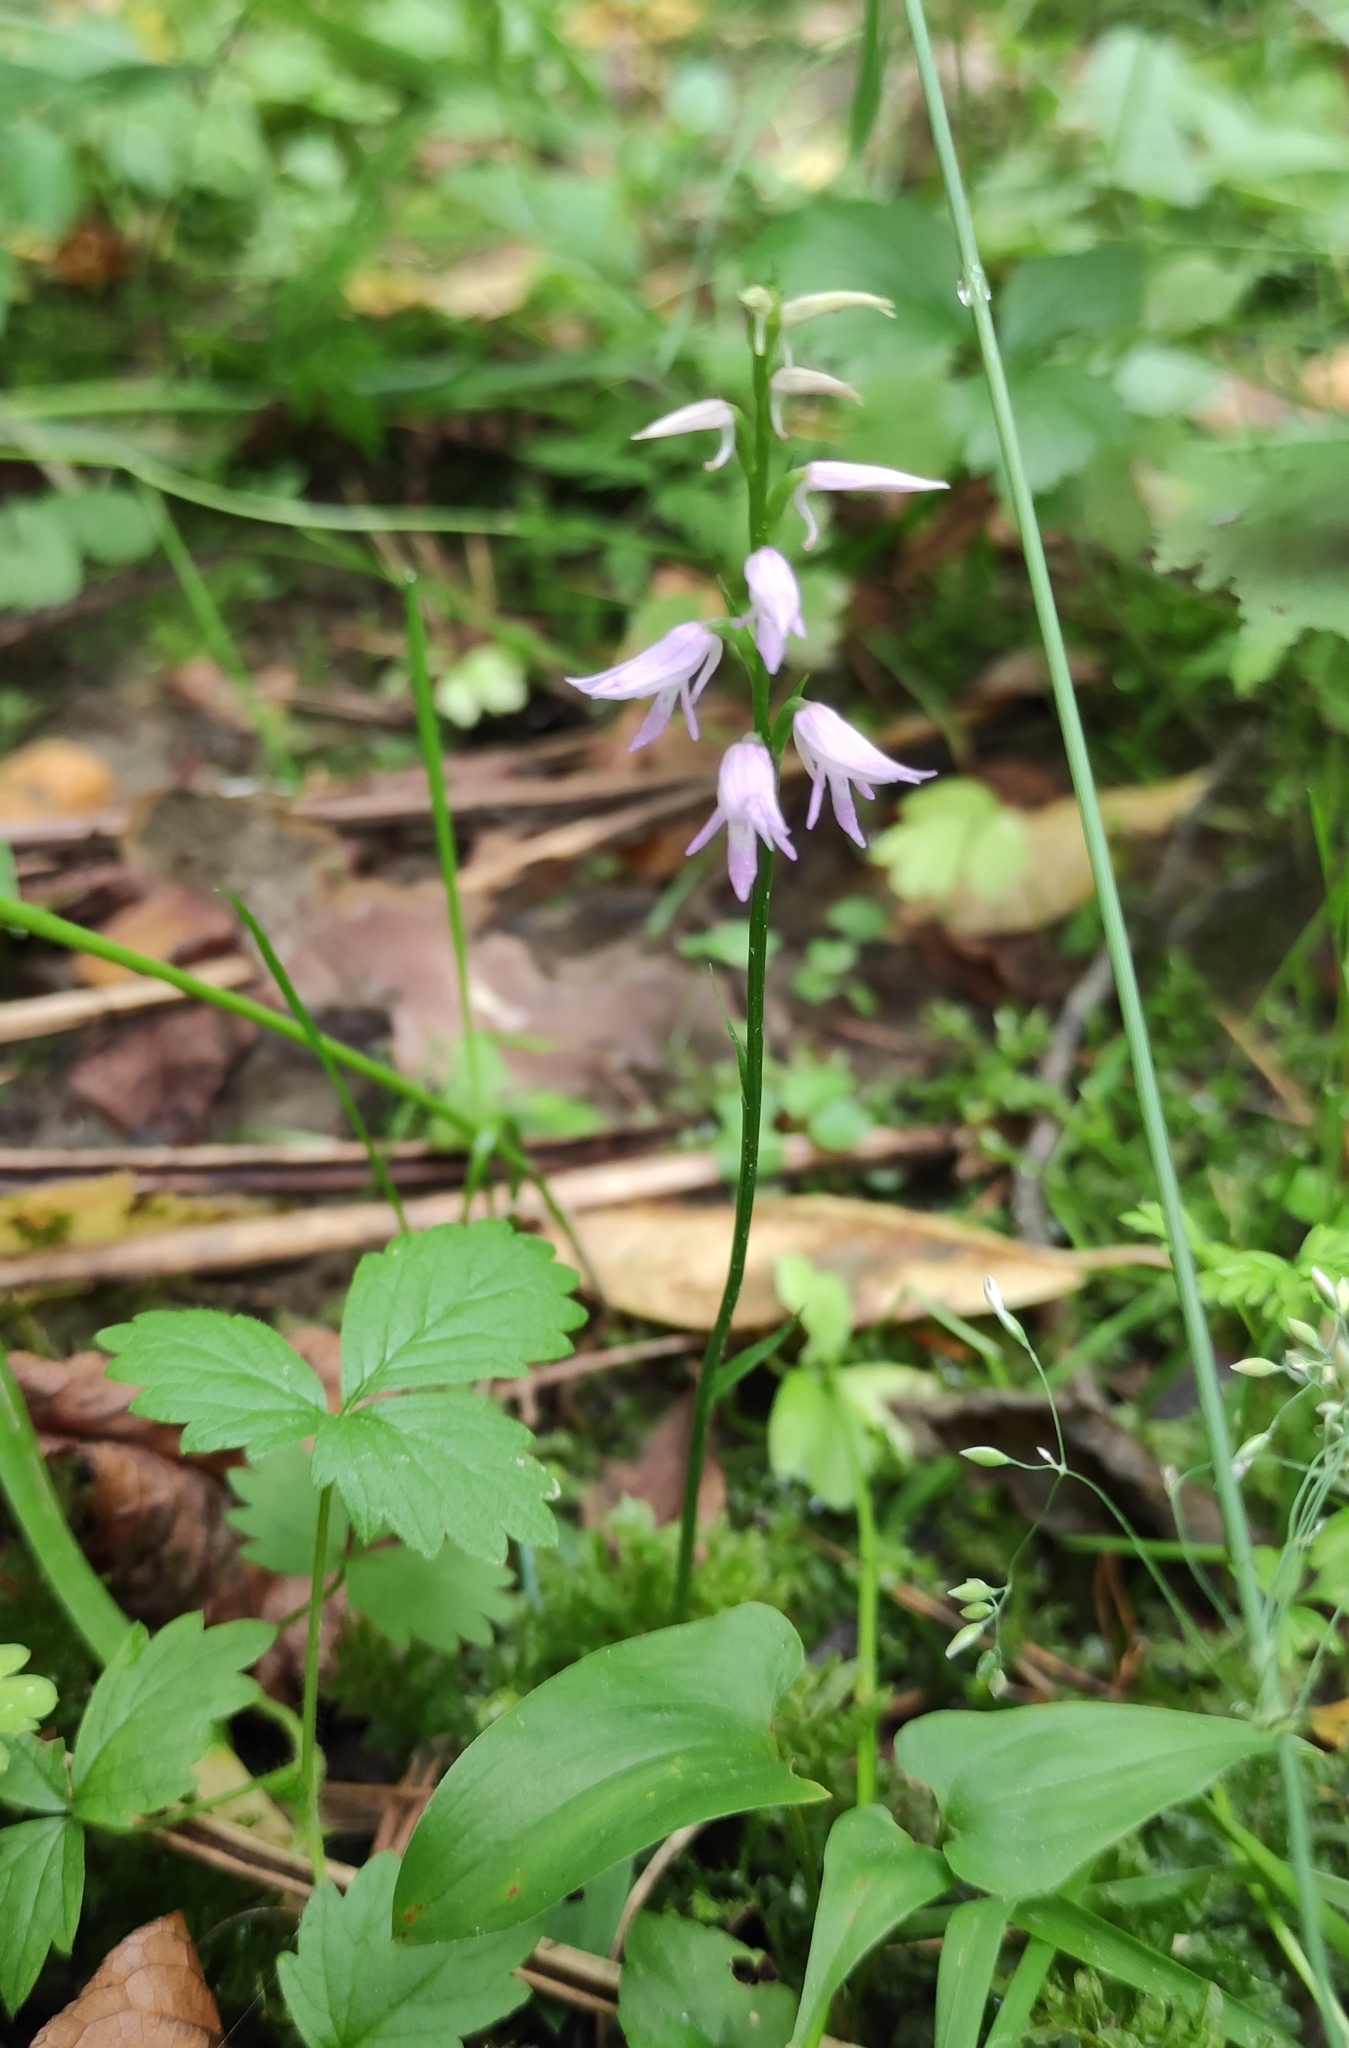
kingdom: Plantae
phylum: Tracheophyta
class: Liliopsida
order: Asparagales
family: Orchidaceae
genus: Hemipilia
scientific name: Hemipilia cucullata
